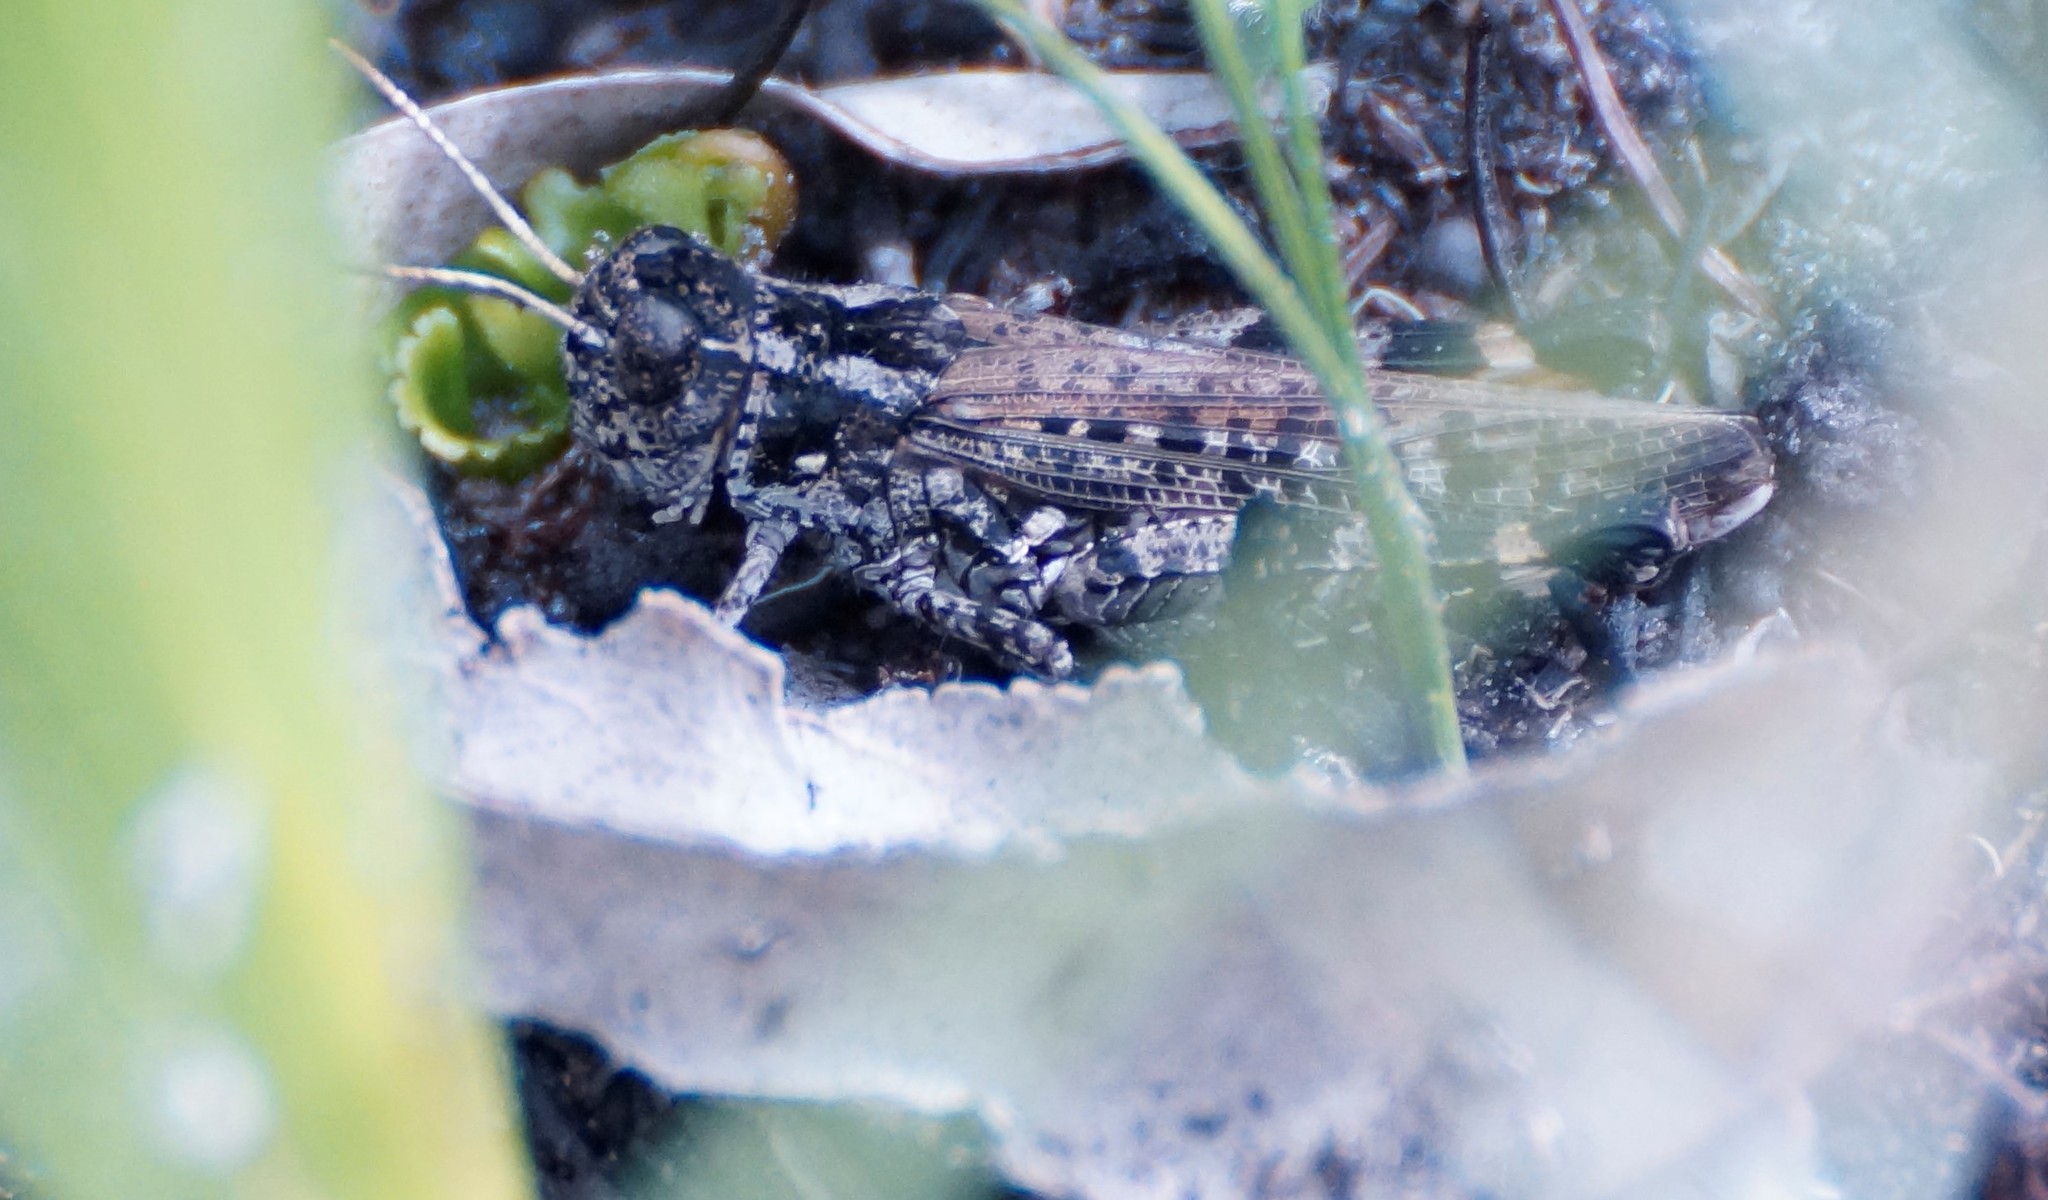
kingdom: Animalia
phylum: Arthropoda
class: Insecta
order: Orthoptera
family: Acrididae
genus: Exarna
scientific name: Exarna includens
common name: Red-legged exarna
